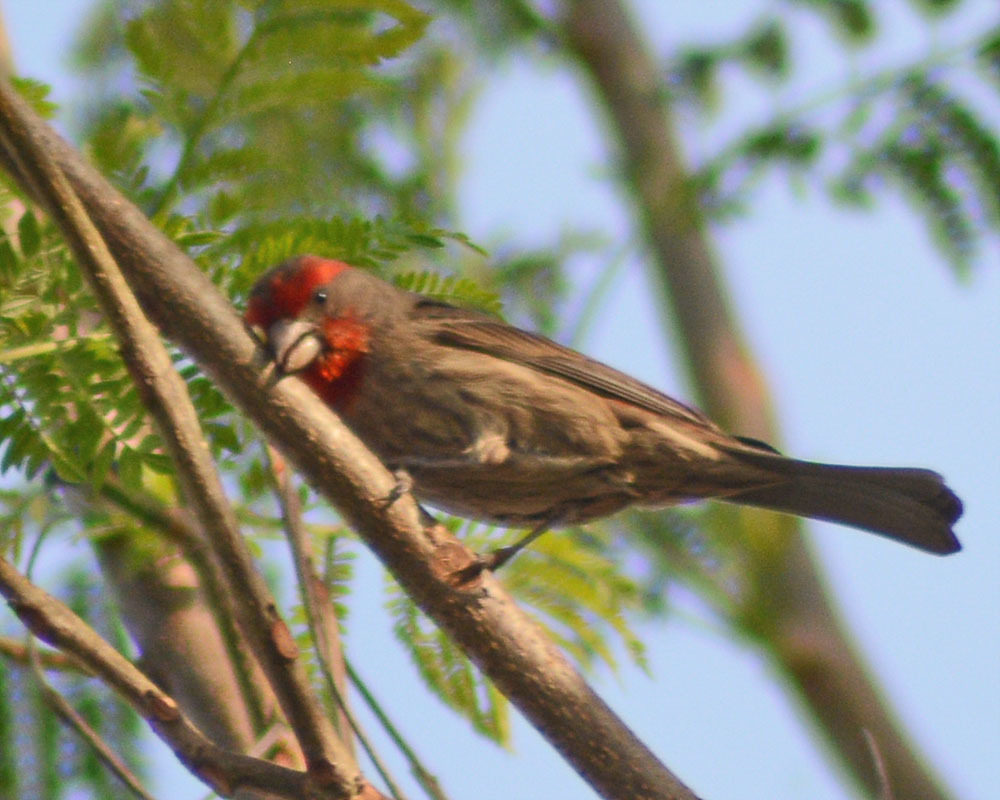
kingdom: Animalia
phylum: Chordata
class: Aves
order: Passeriformes
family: Fringillidae
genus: Haemorhous
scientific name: Haemorhous mexicanus
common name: House finch
